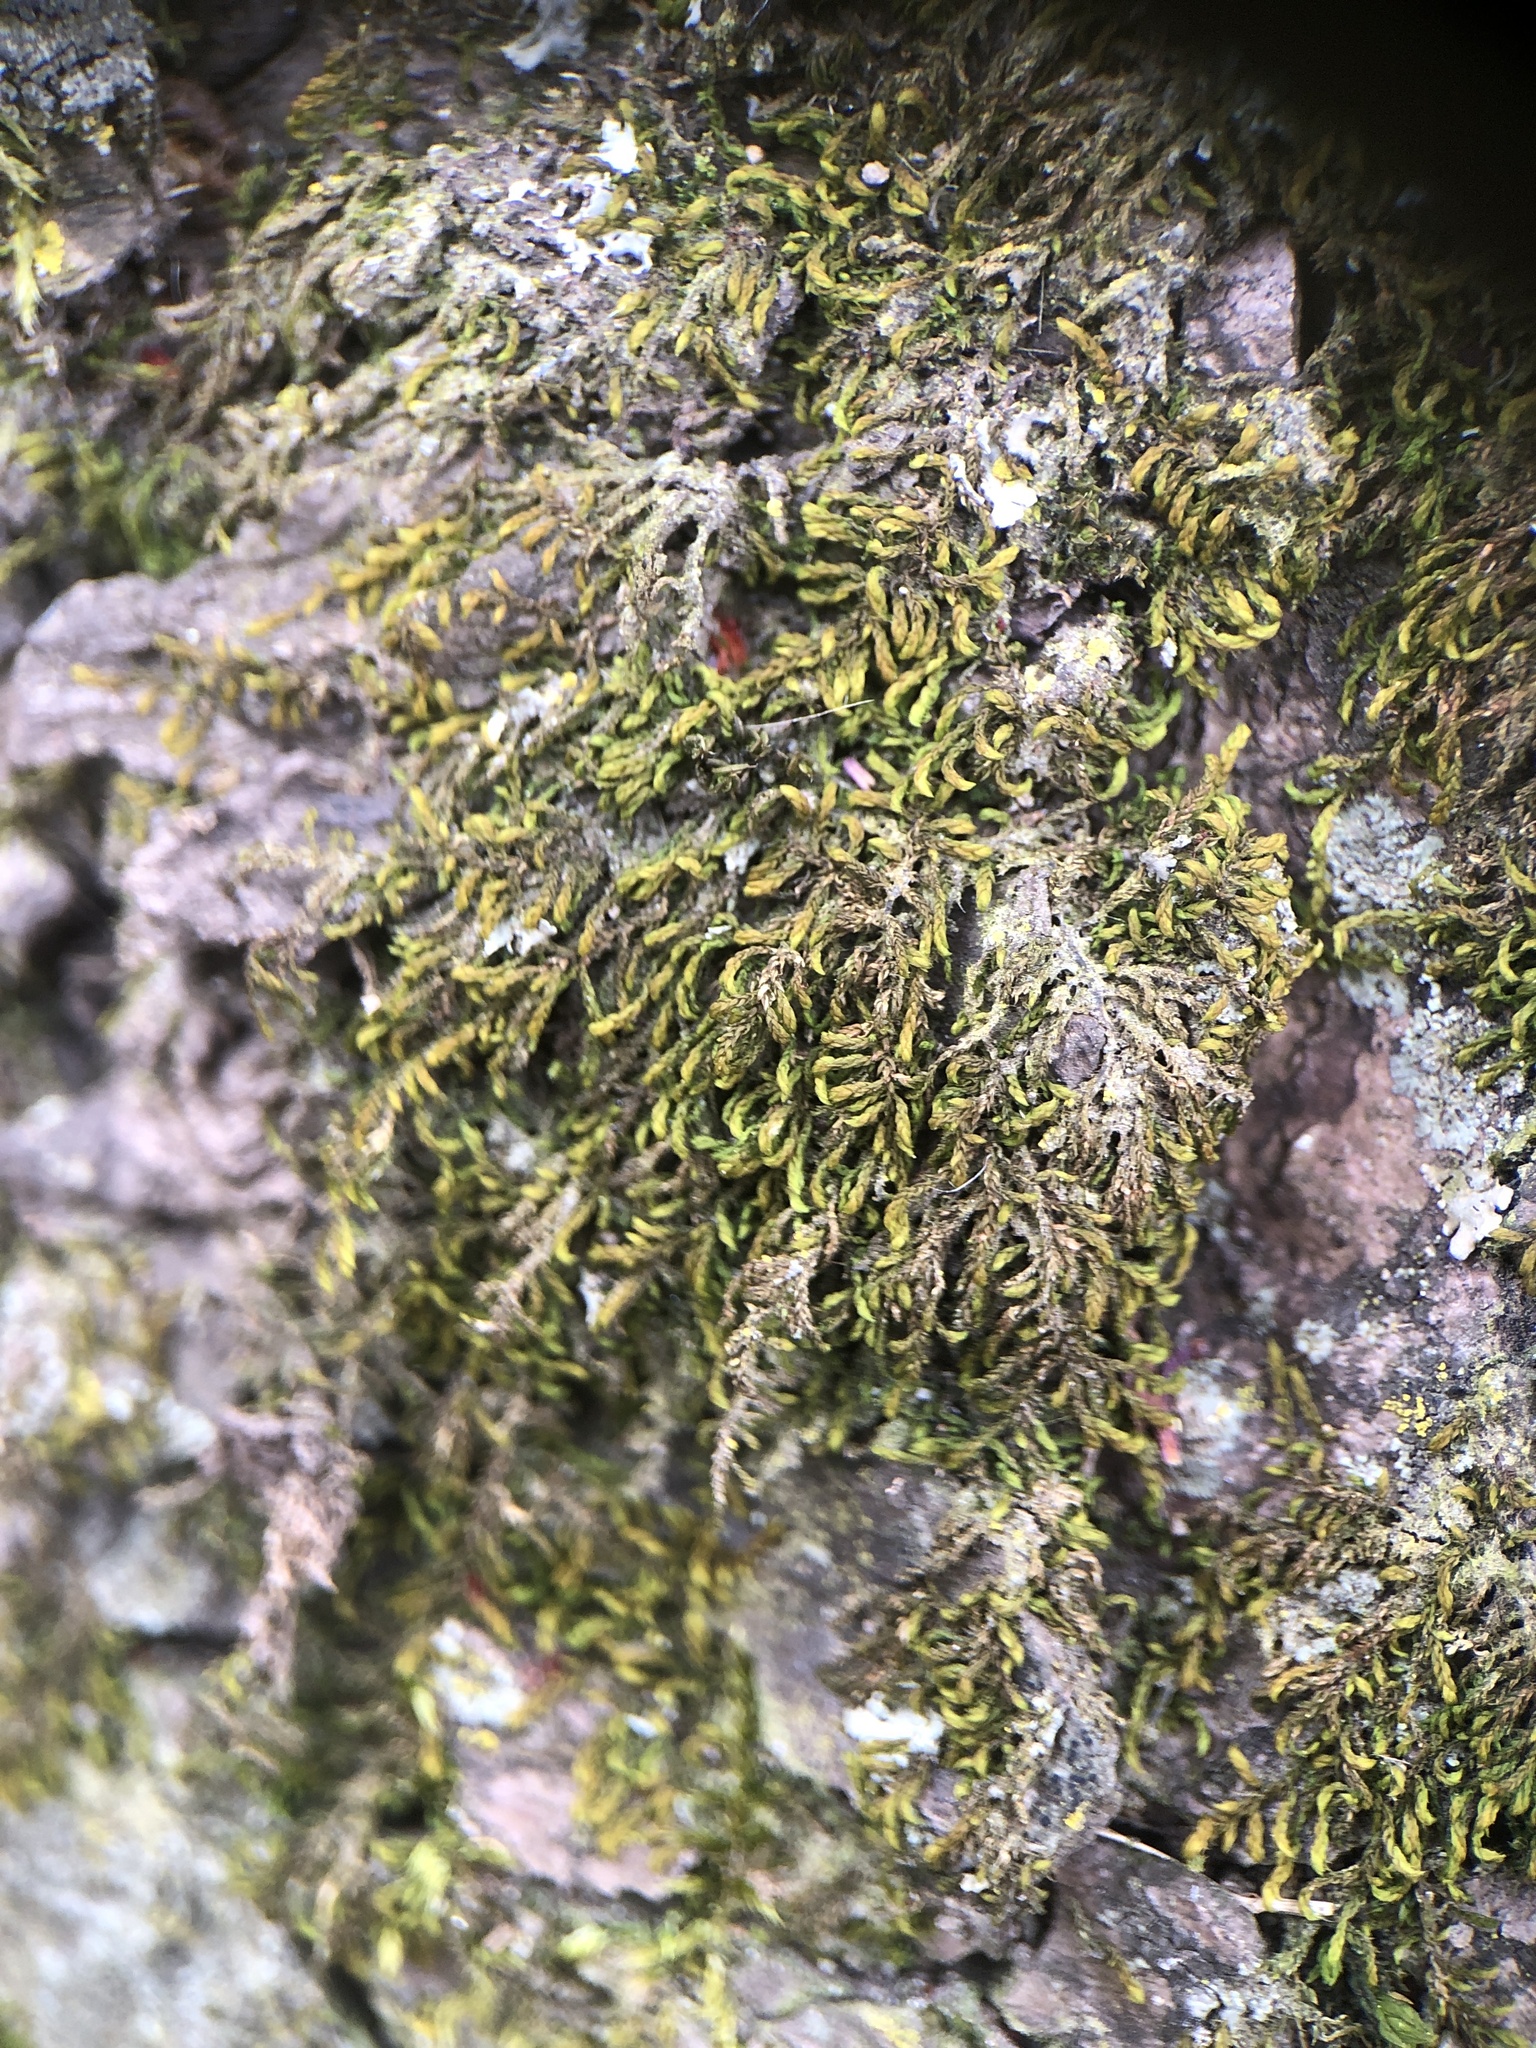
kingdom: Plantae
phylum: Bryophyta
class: Bryopsida
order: Hypnales
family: Leskeaceae
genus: Leskea
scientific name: Leskea polycarpa
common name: Many-fruited leske's moss
